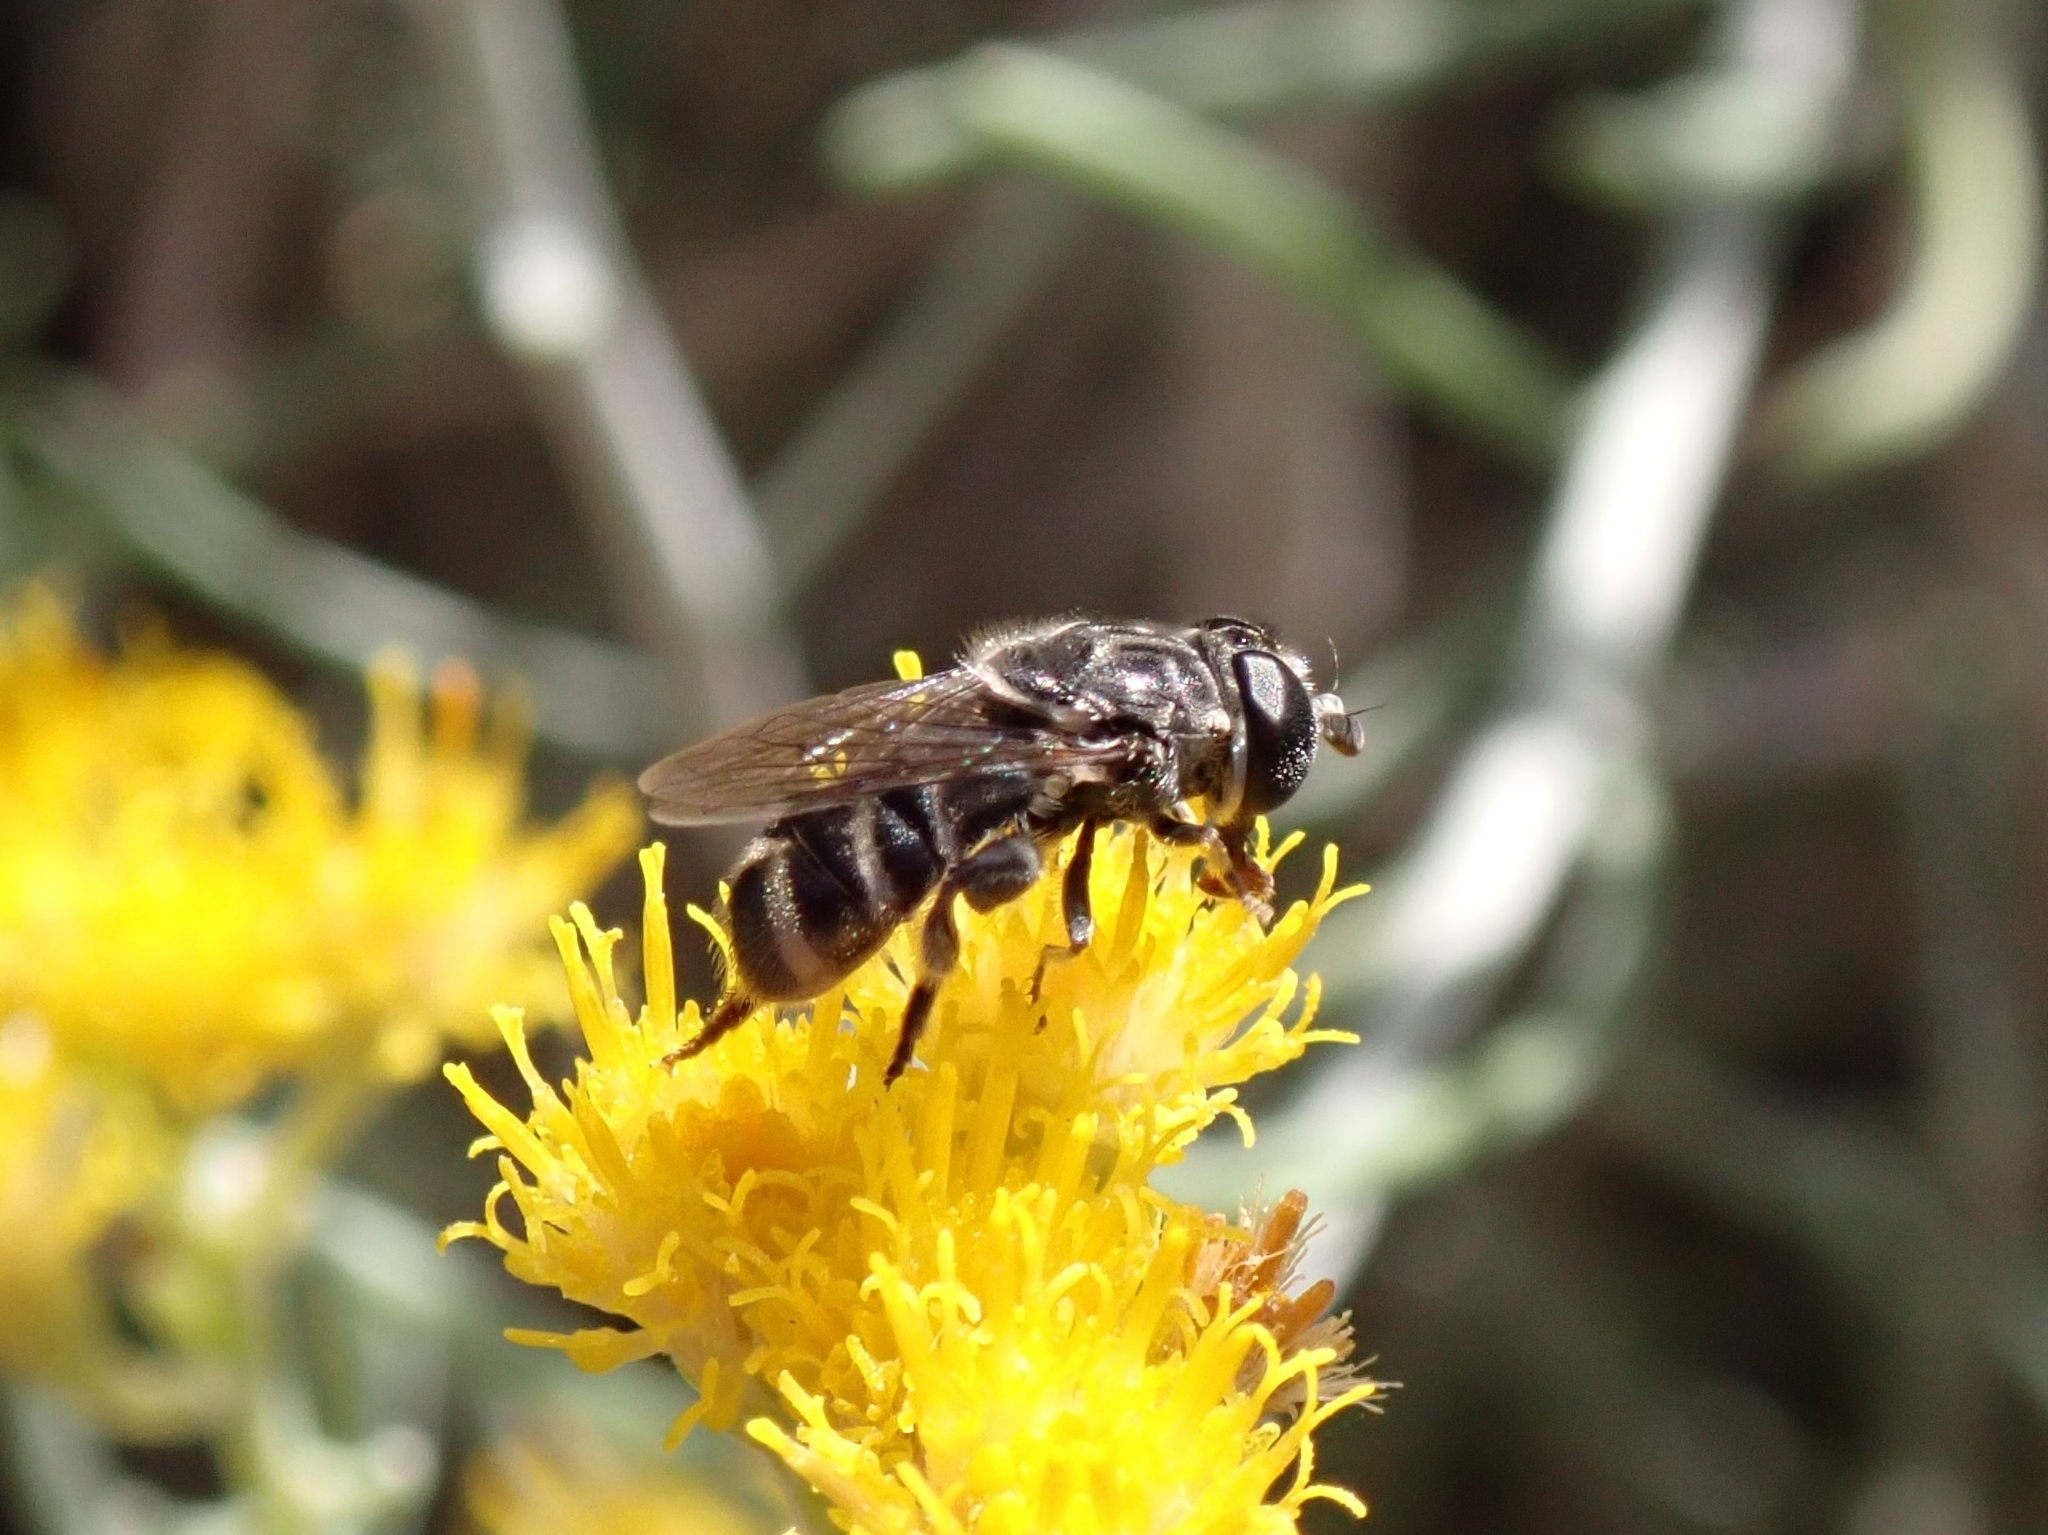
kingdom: Animalia
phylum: Arthropoda
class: Insecta
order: Diptera
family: Syrphidae
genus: Eumerus
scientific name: Eumerus obliquus
